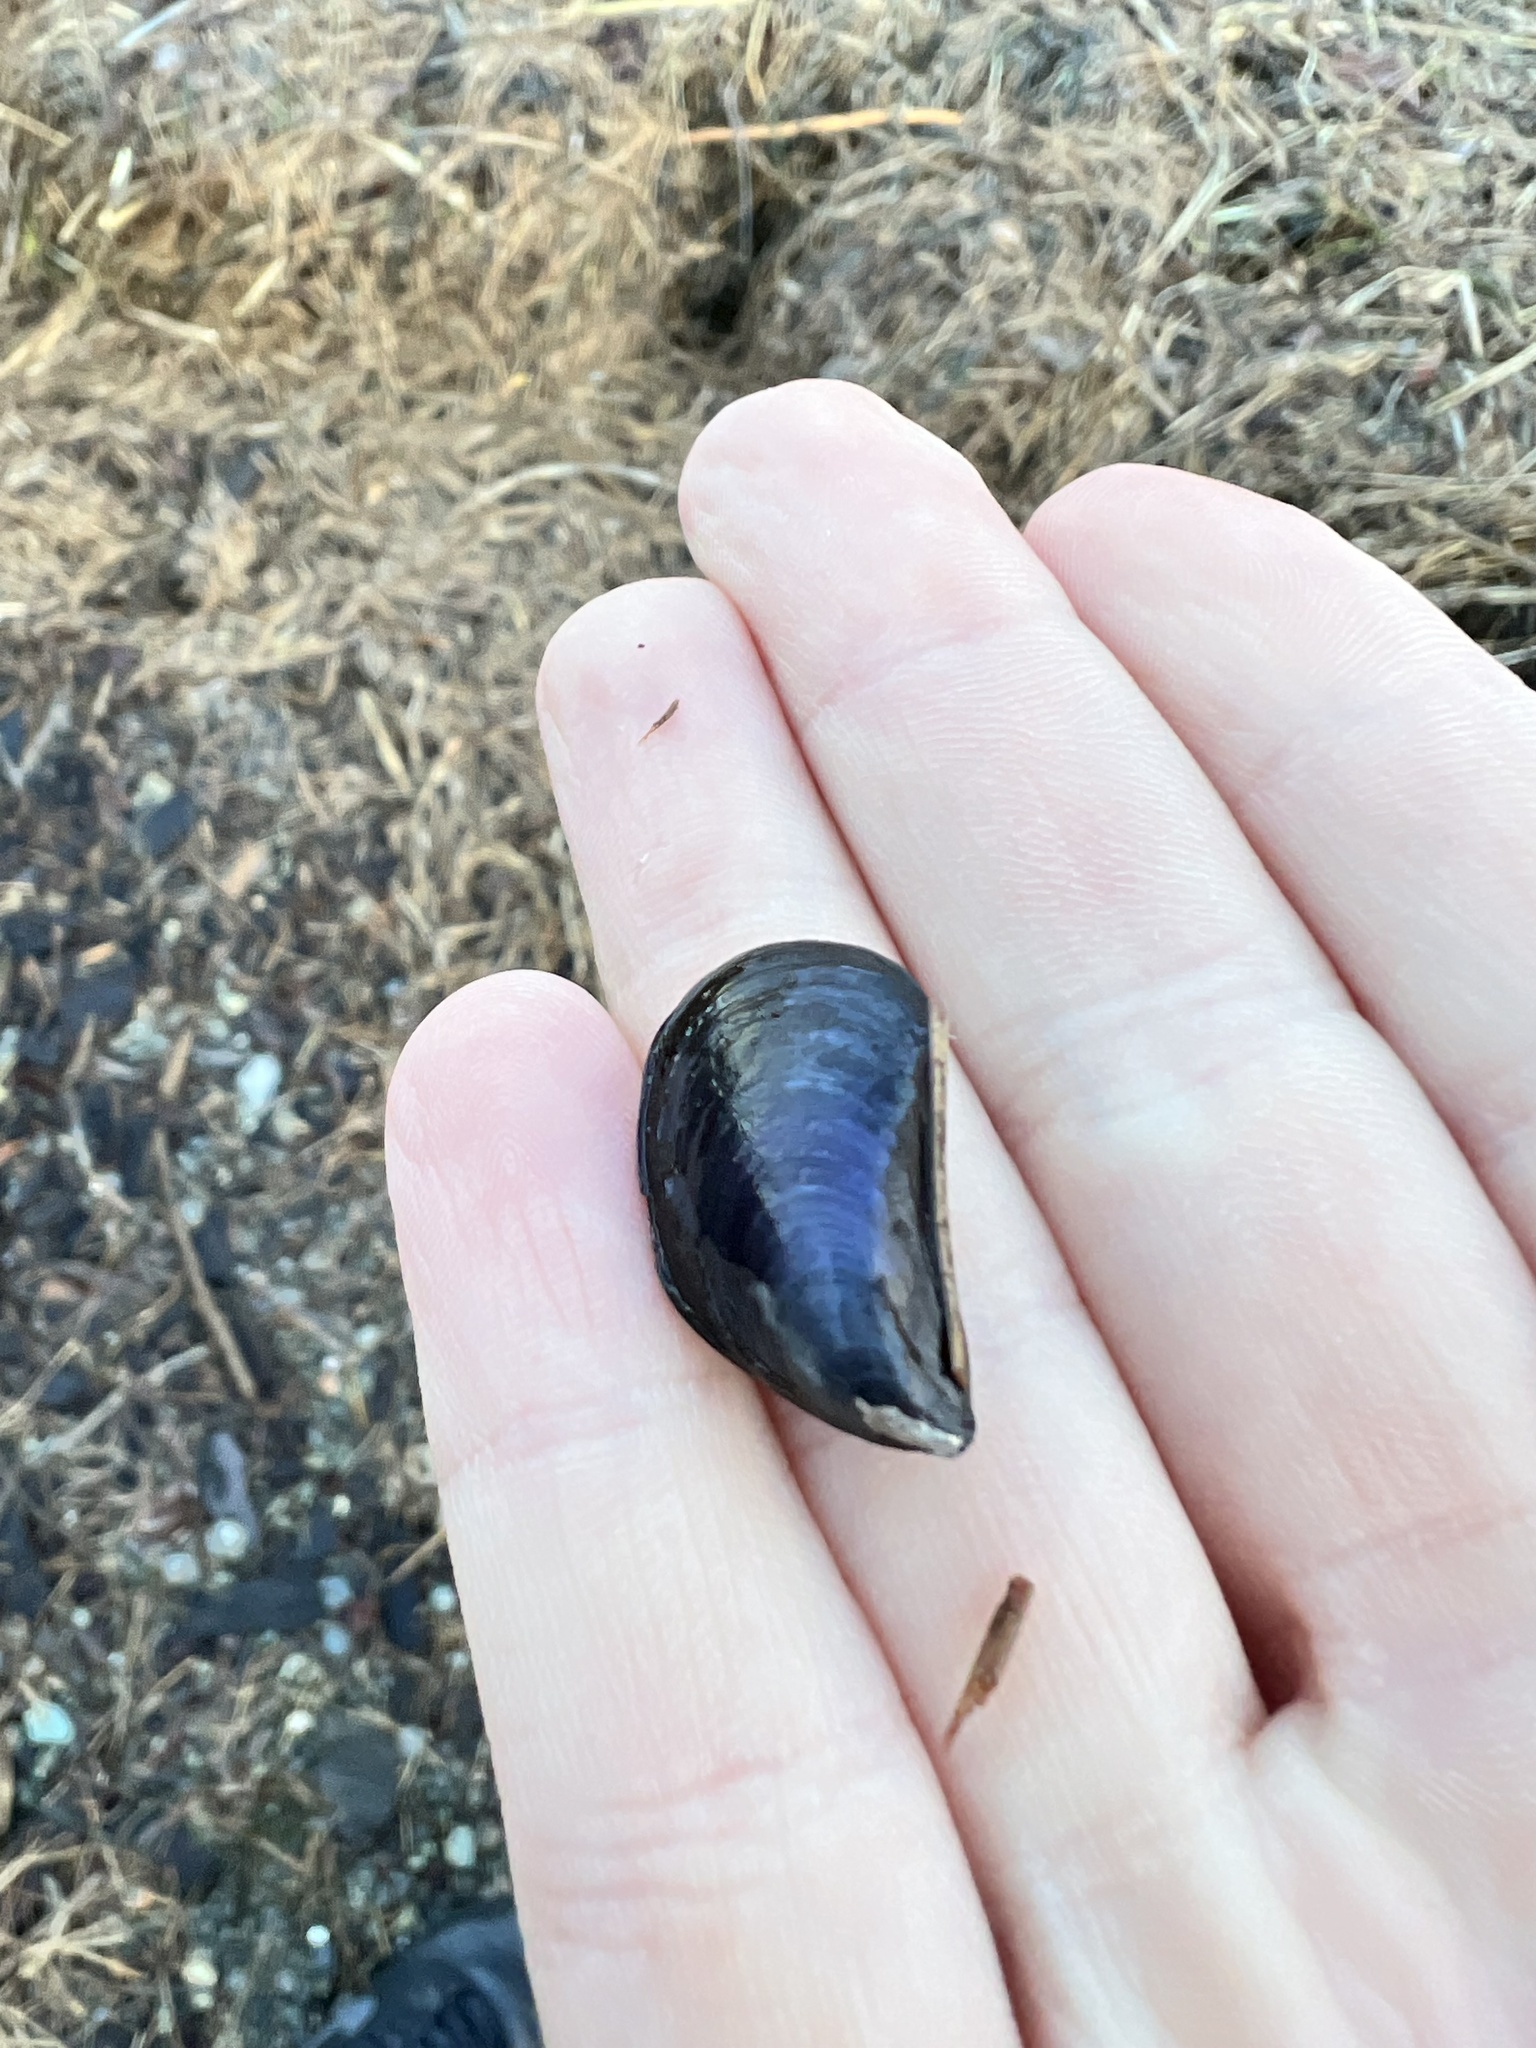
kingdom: Animalia
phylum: Mollusca
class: Bivalvia
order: Mytilida
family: Mytilidae
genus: Mytilus
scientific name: Mytilus
